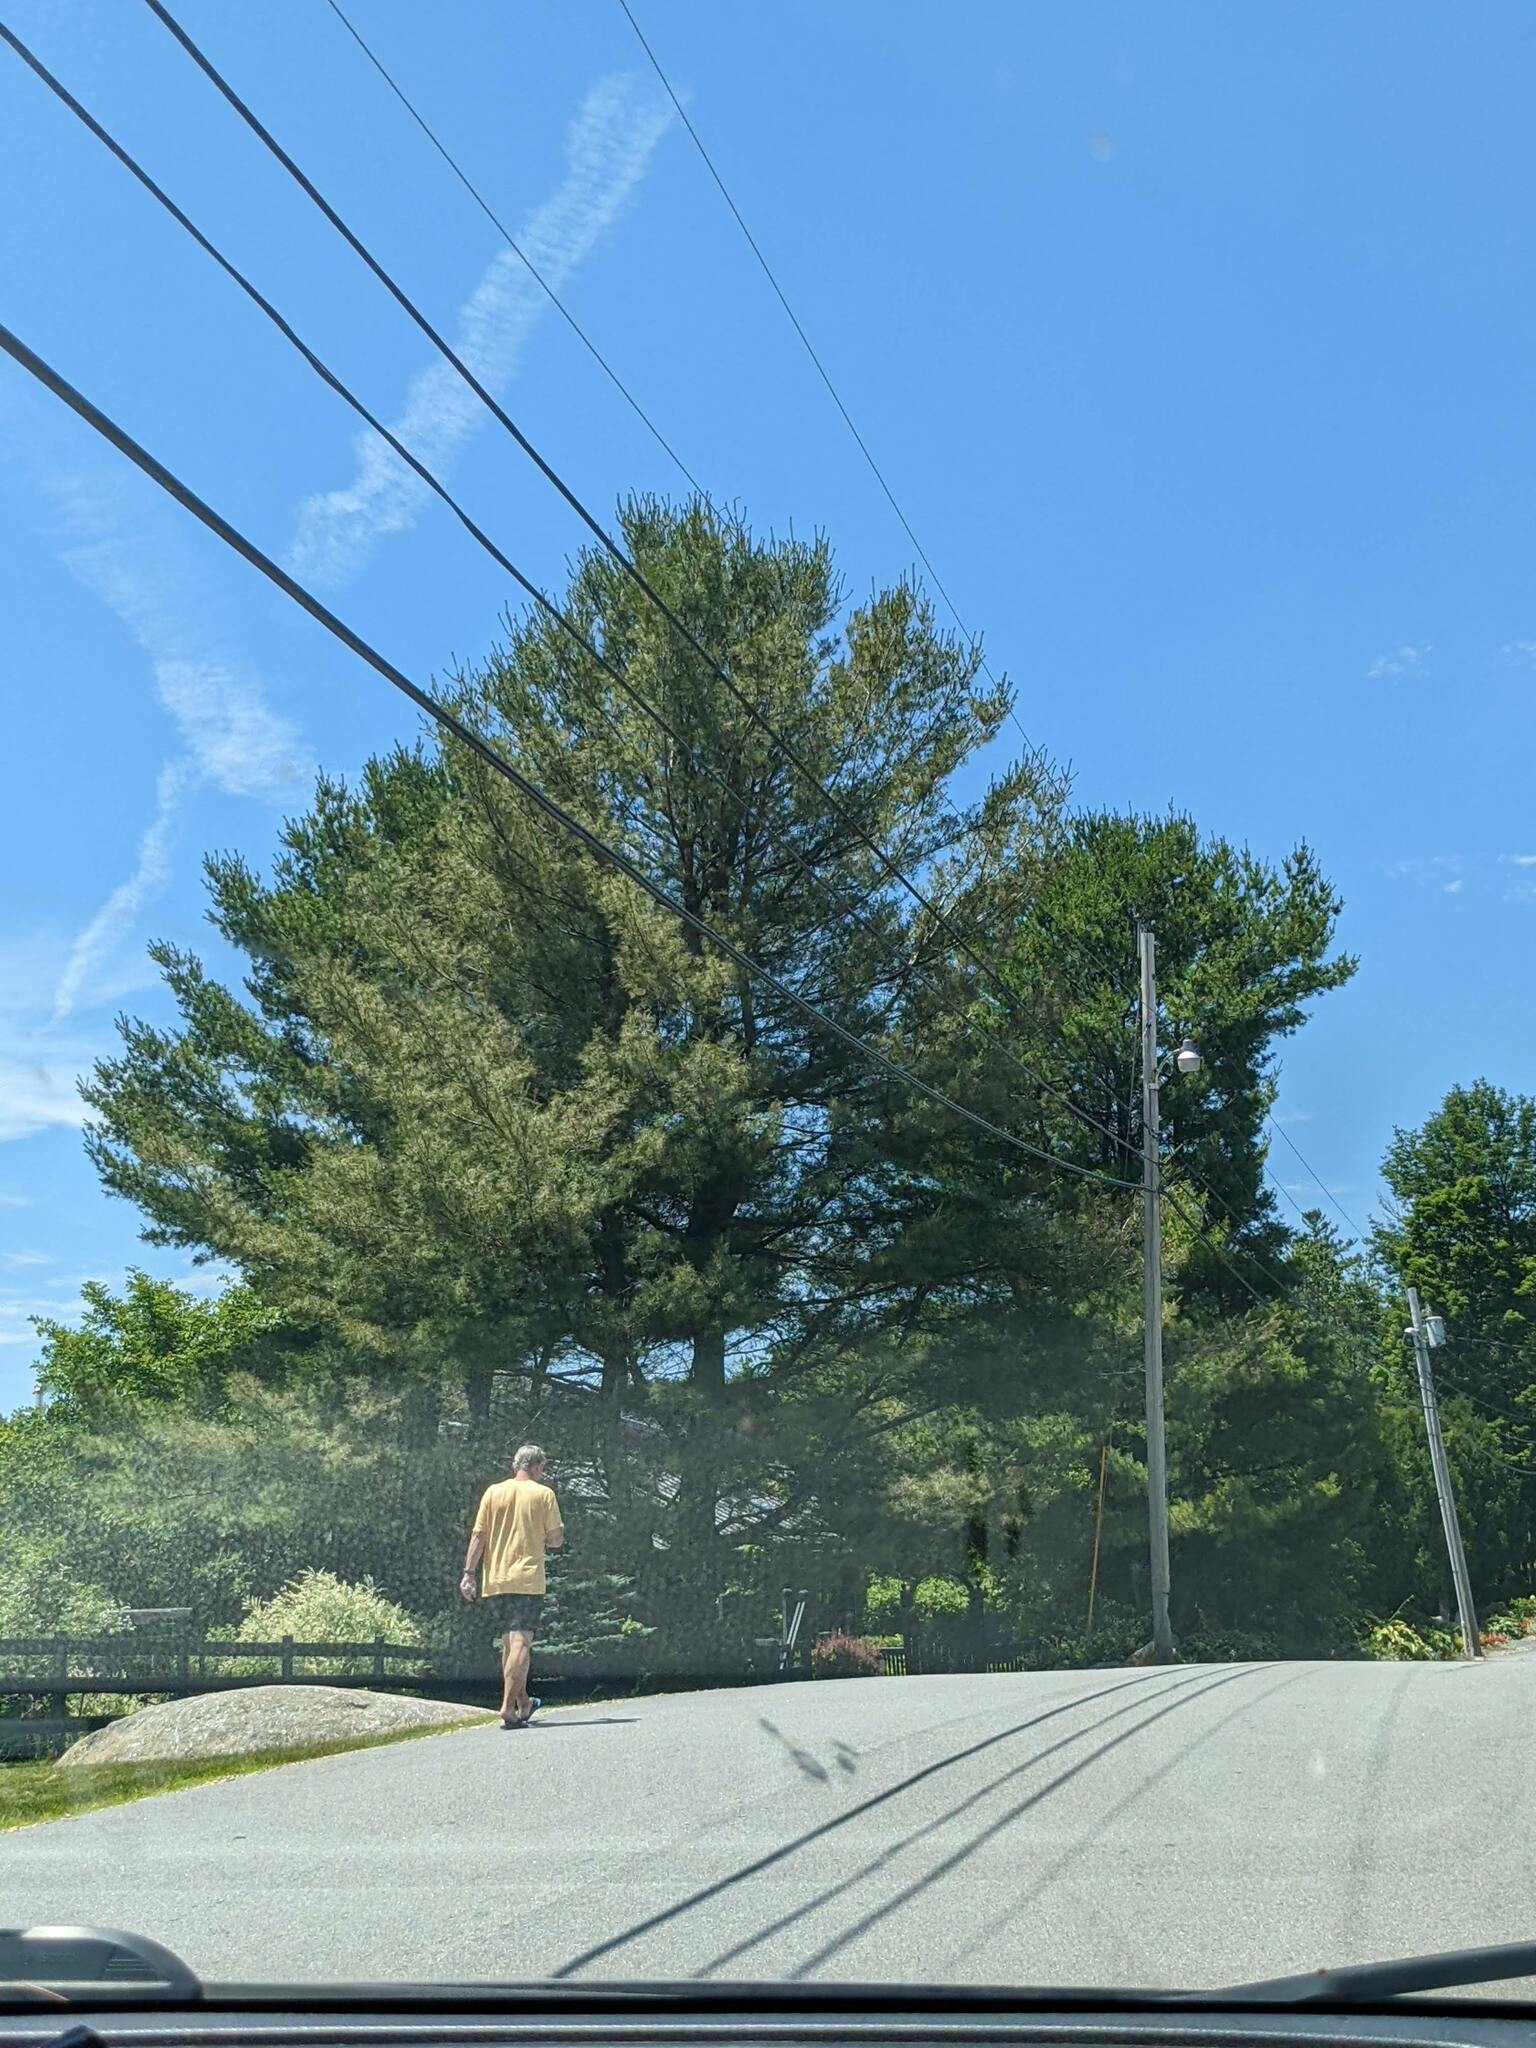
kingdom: Plantae
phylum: Tracheophyta
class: Pinopsida
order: Pinales
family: Pinaceae
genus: Pinus
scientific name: Pinus strobus
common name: Weymouth pine
